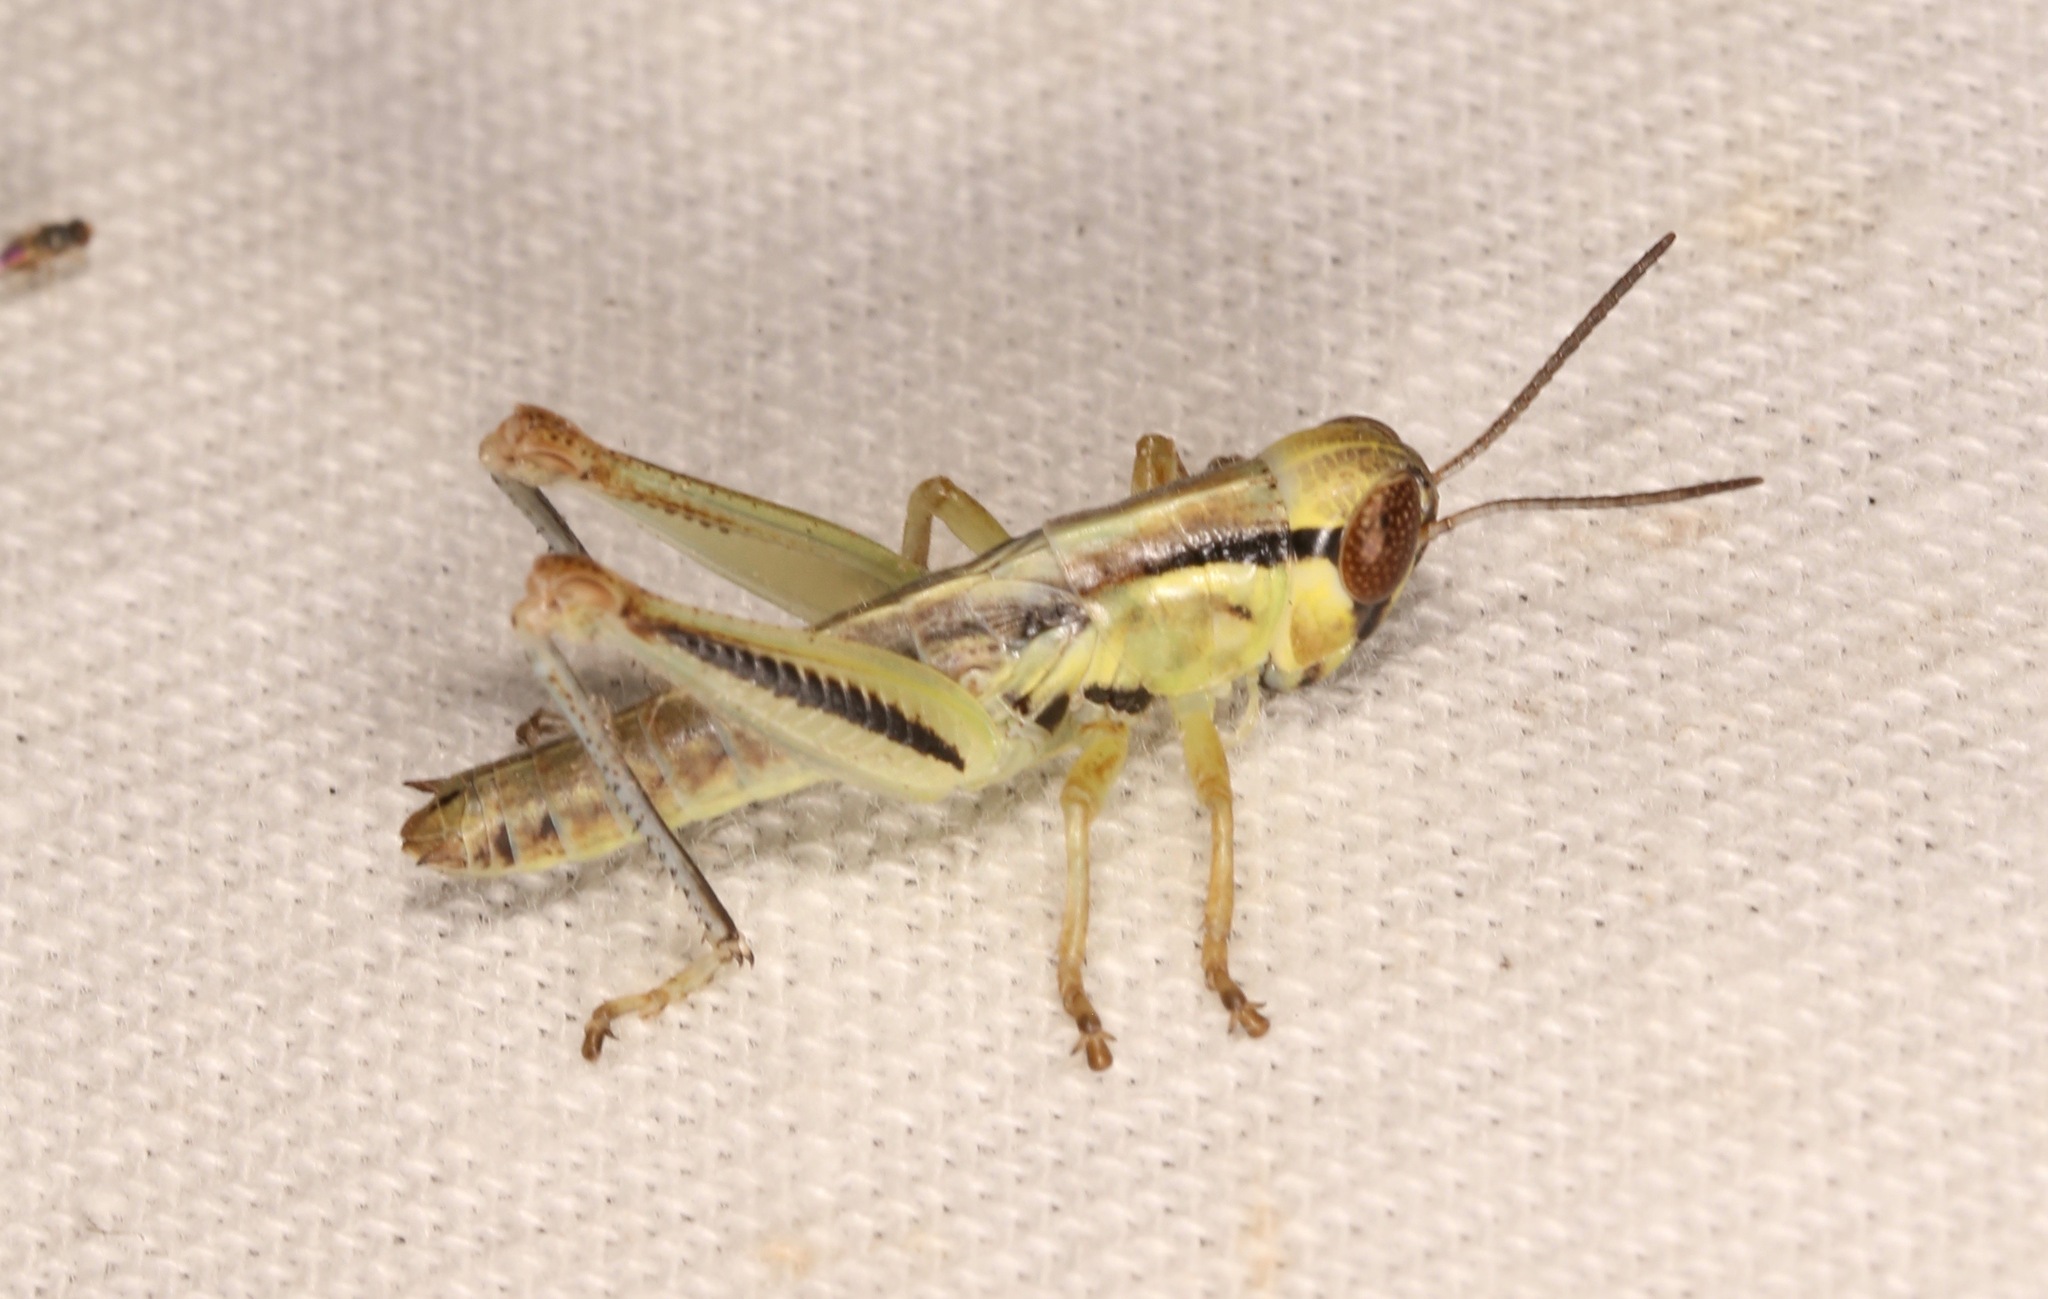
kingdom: Animalia
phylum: Arthropoda
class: Insecta
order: Orthoptera
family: Acrididae
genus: Phoetaliotes
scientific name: Phoetaliotes nebrascensis
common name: Large-headed grasshopper
